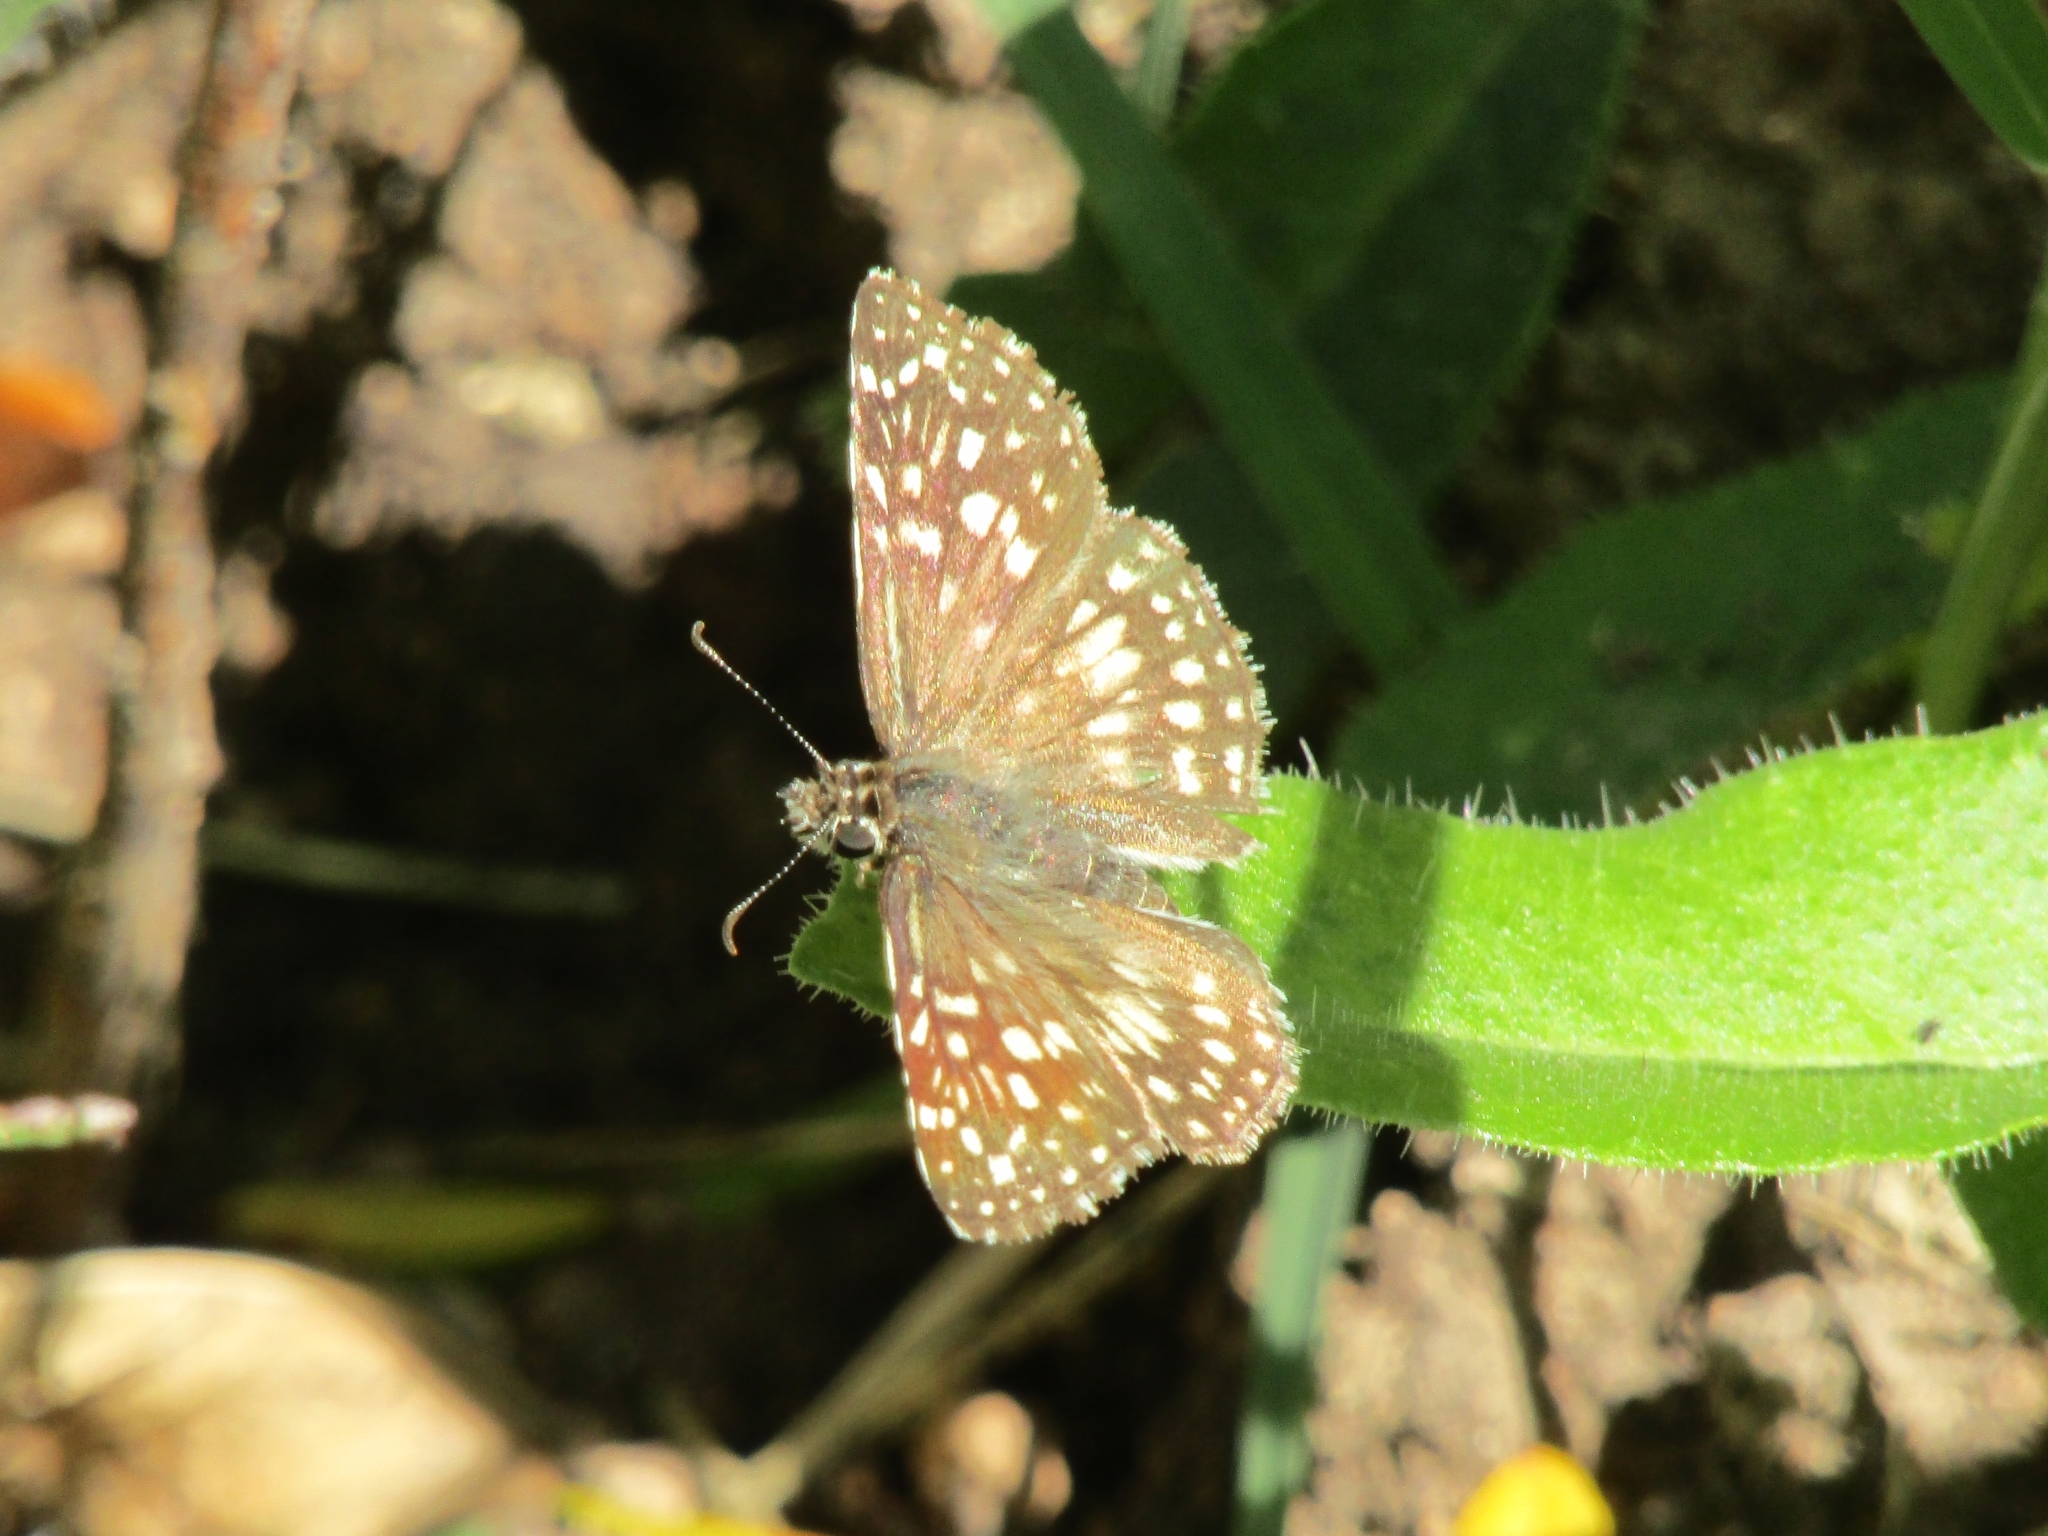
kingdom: Animalia
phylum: Arthropoda
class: Insecta
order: Lepidoptera
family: Hesperiidae
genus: Pyrgus
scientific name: Pyrgus oileus
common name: Tropical checkered-skipper
